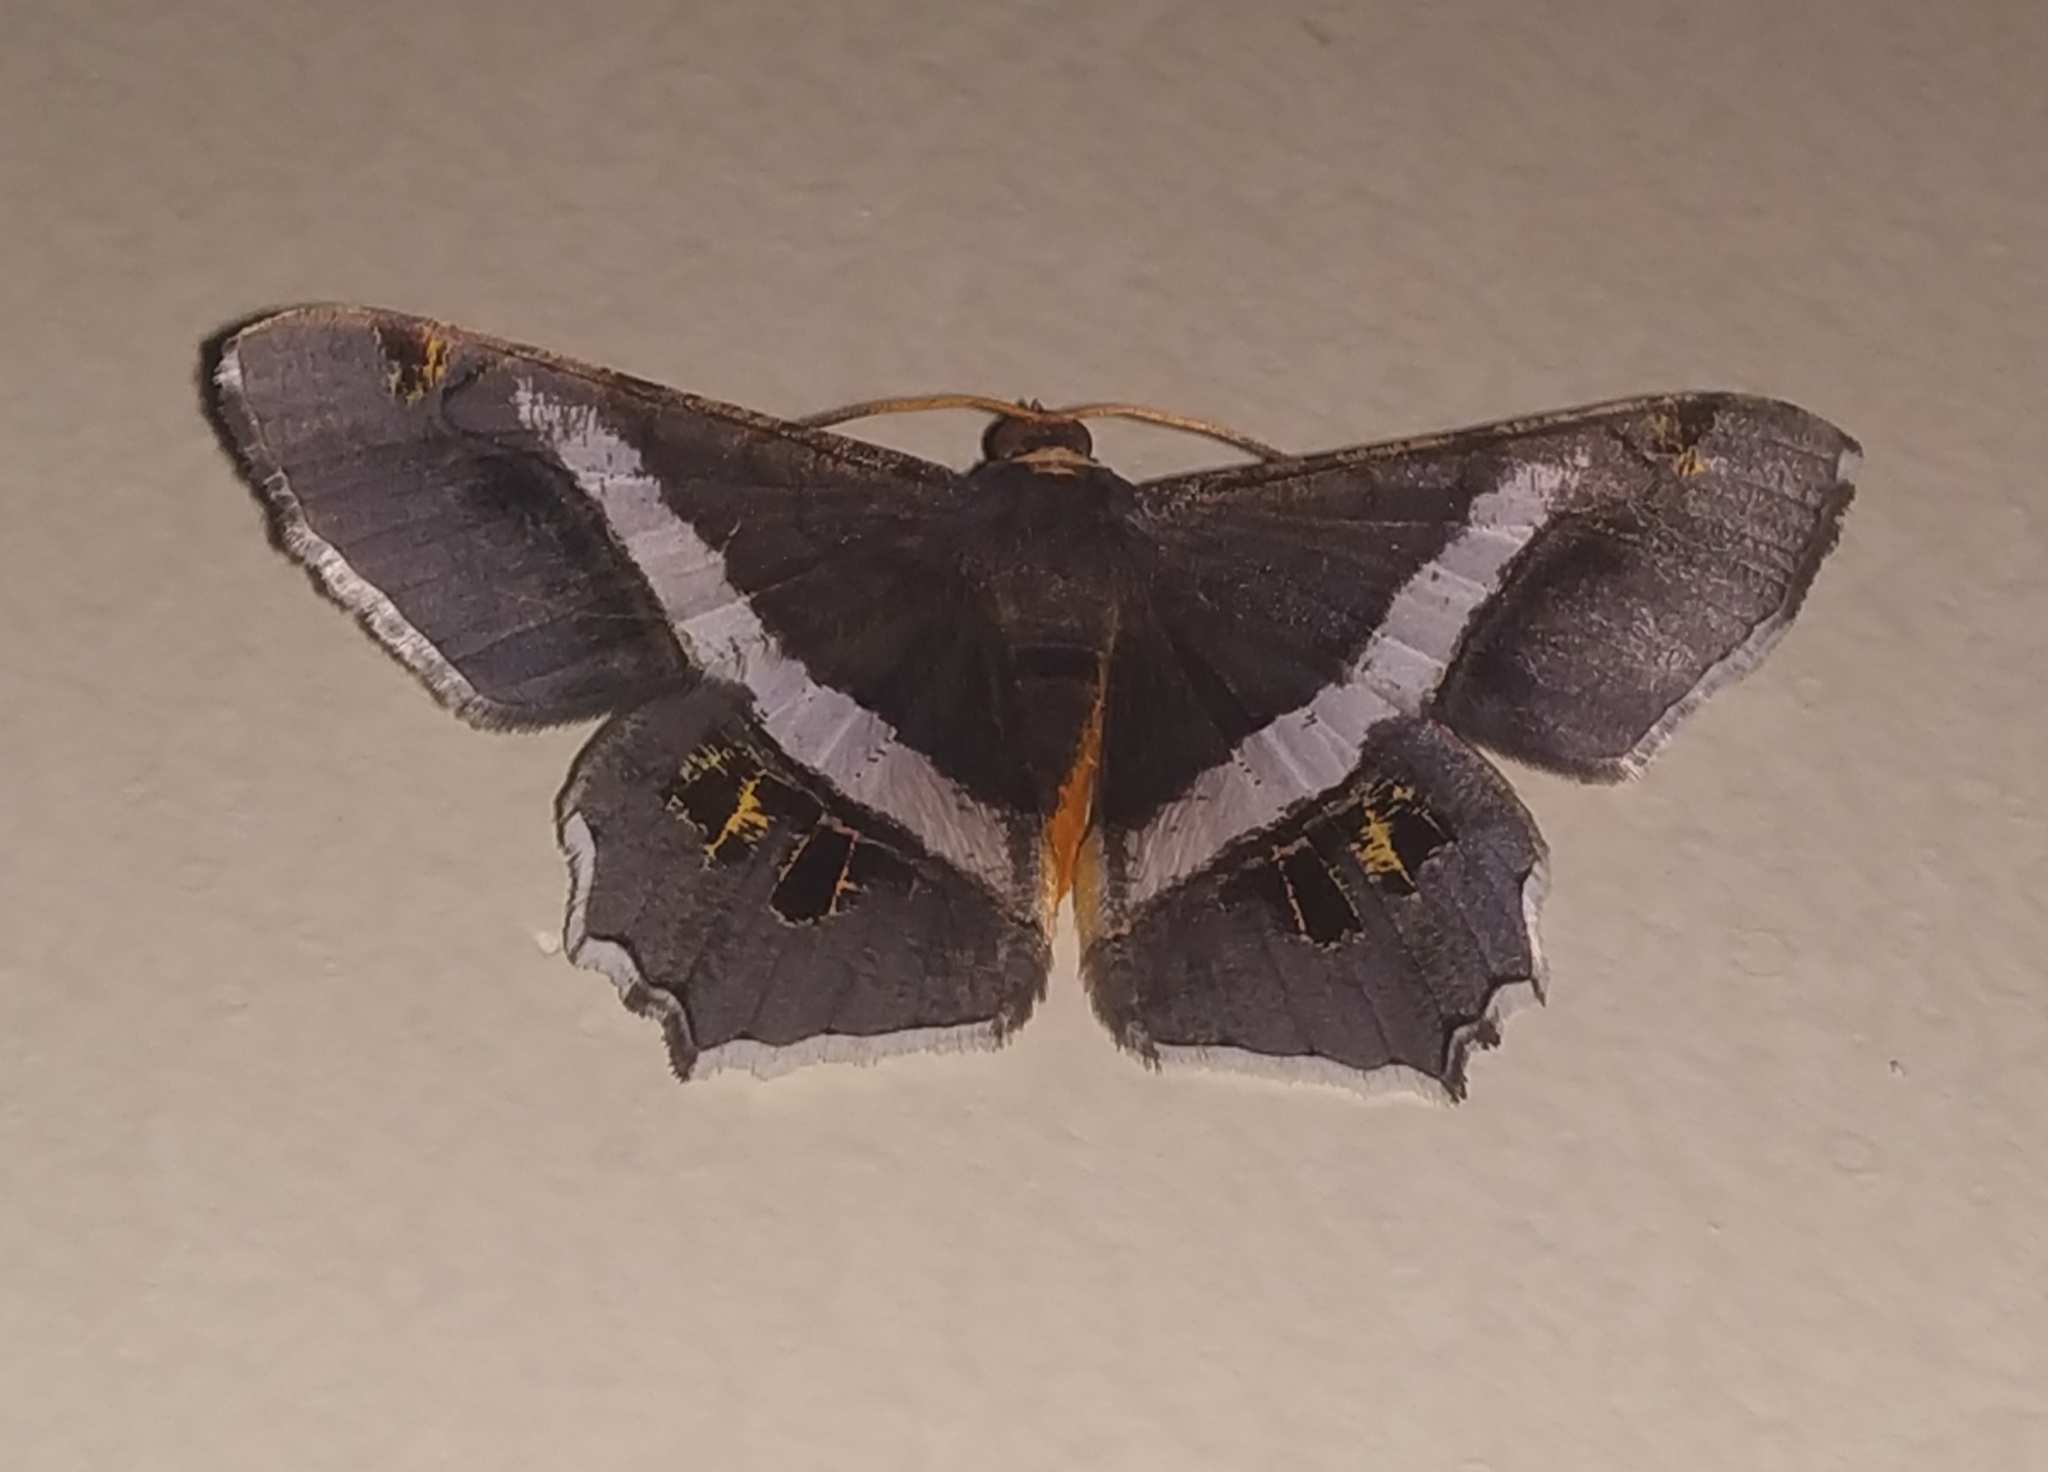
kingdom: Animalia
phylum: Arthropoda
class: Insecta
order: Lepidoptera
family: Geometridae
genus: Chiasmia
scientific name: Chiasmia eleonora
